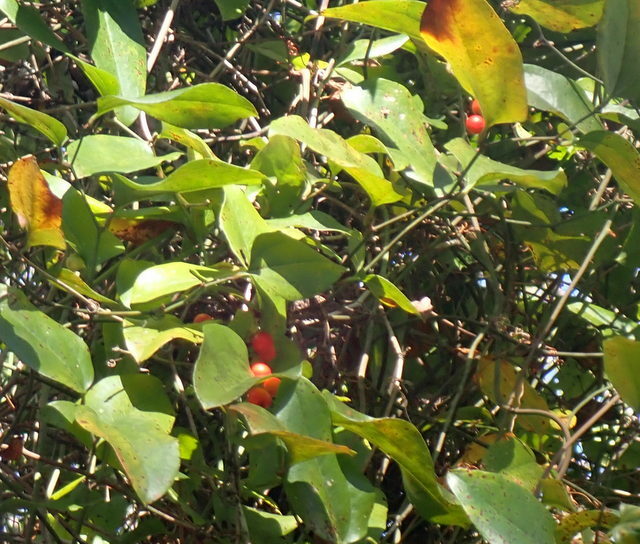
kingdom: Plantae
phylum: Tracheophyta
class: Liliopsida
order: Liliales
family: Smilacaceae
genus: Smilax
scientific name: Smilax walteri
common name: Coral greenbrier
